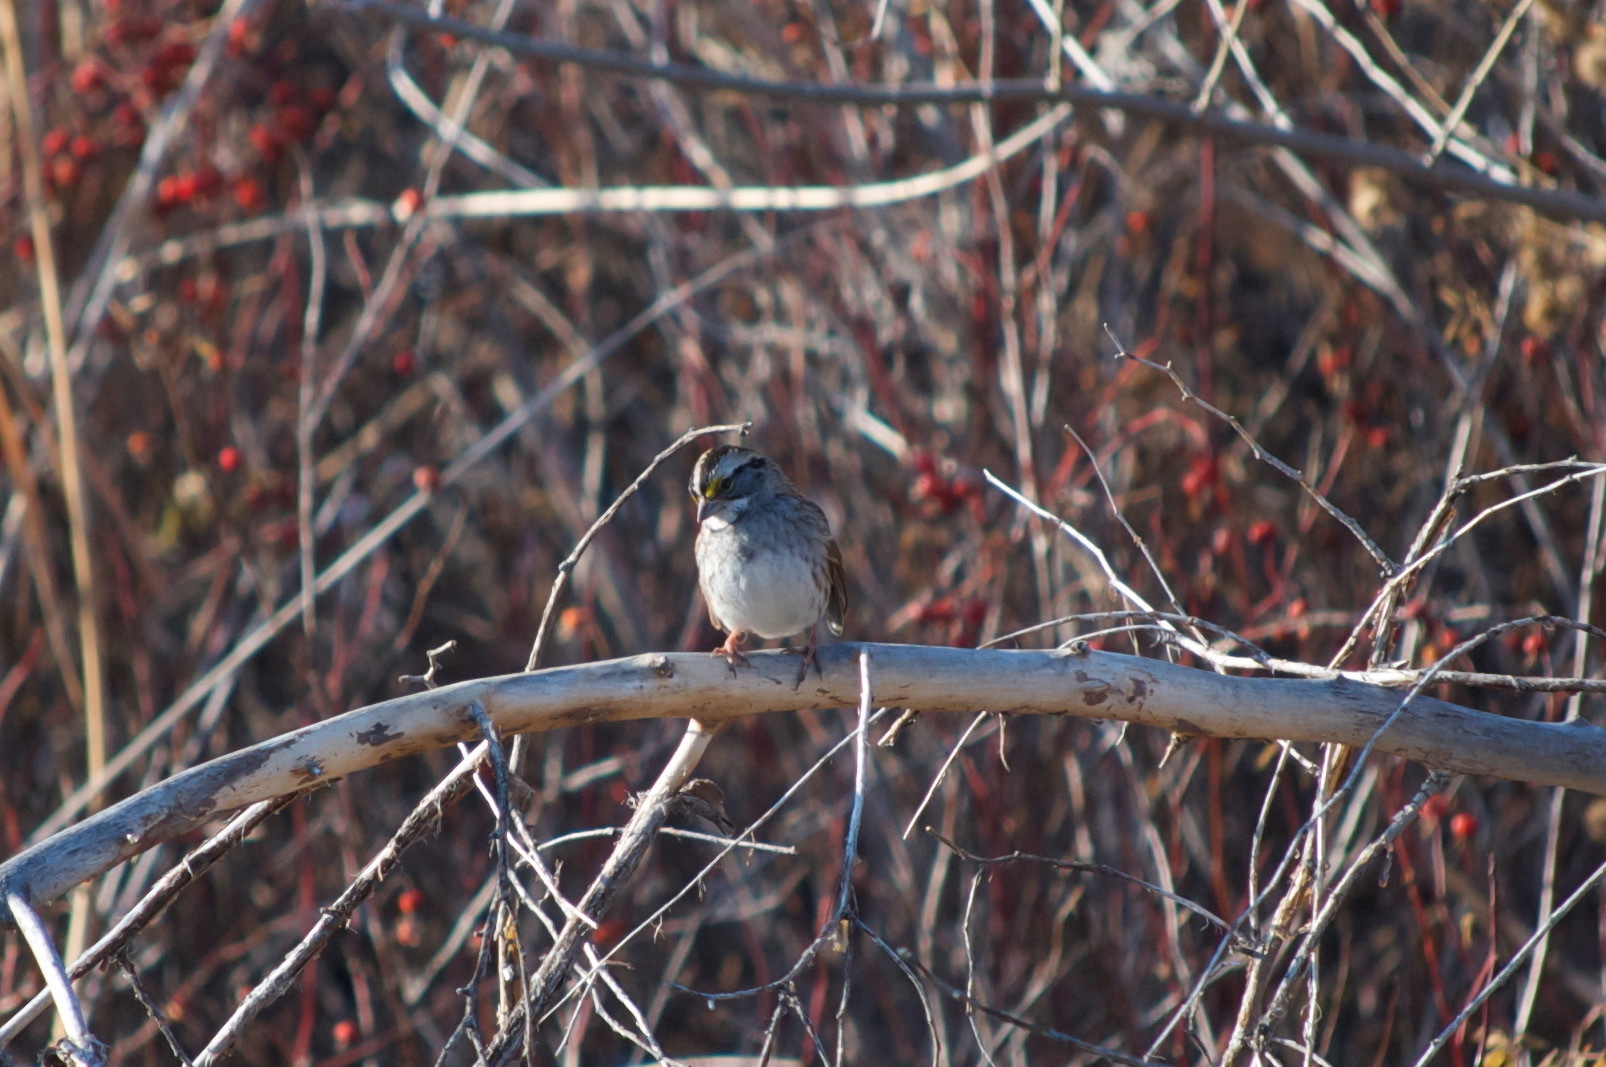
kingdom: Animalia
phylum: Chordata
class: Aves
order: Passeriformes
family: Passerellidae
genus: Zonotrichia
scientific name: Zonotrichia albicollis
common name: White-throated sparrow
